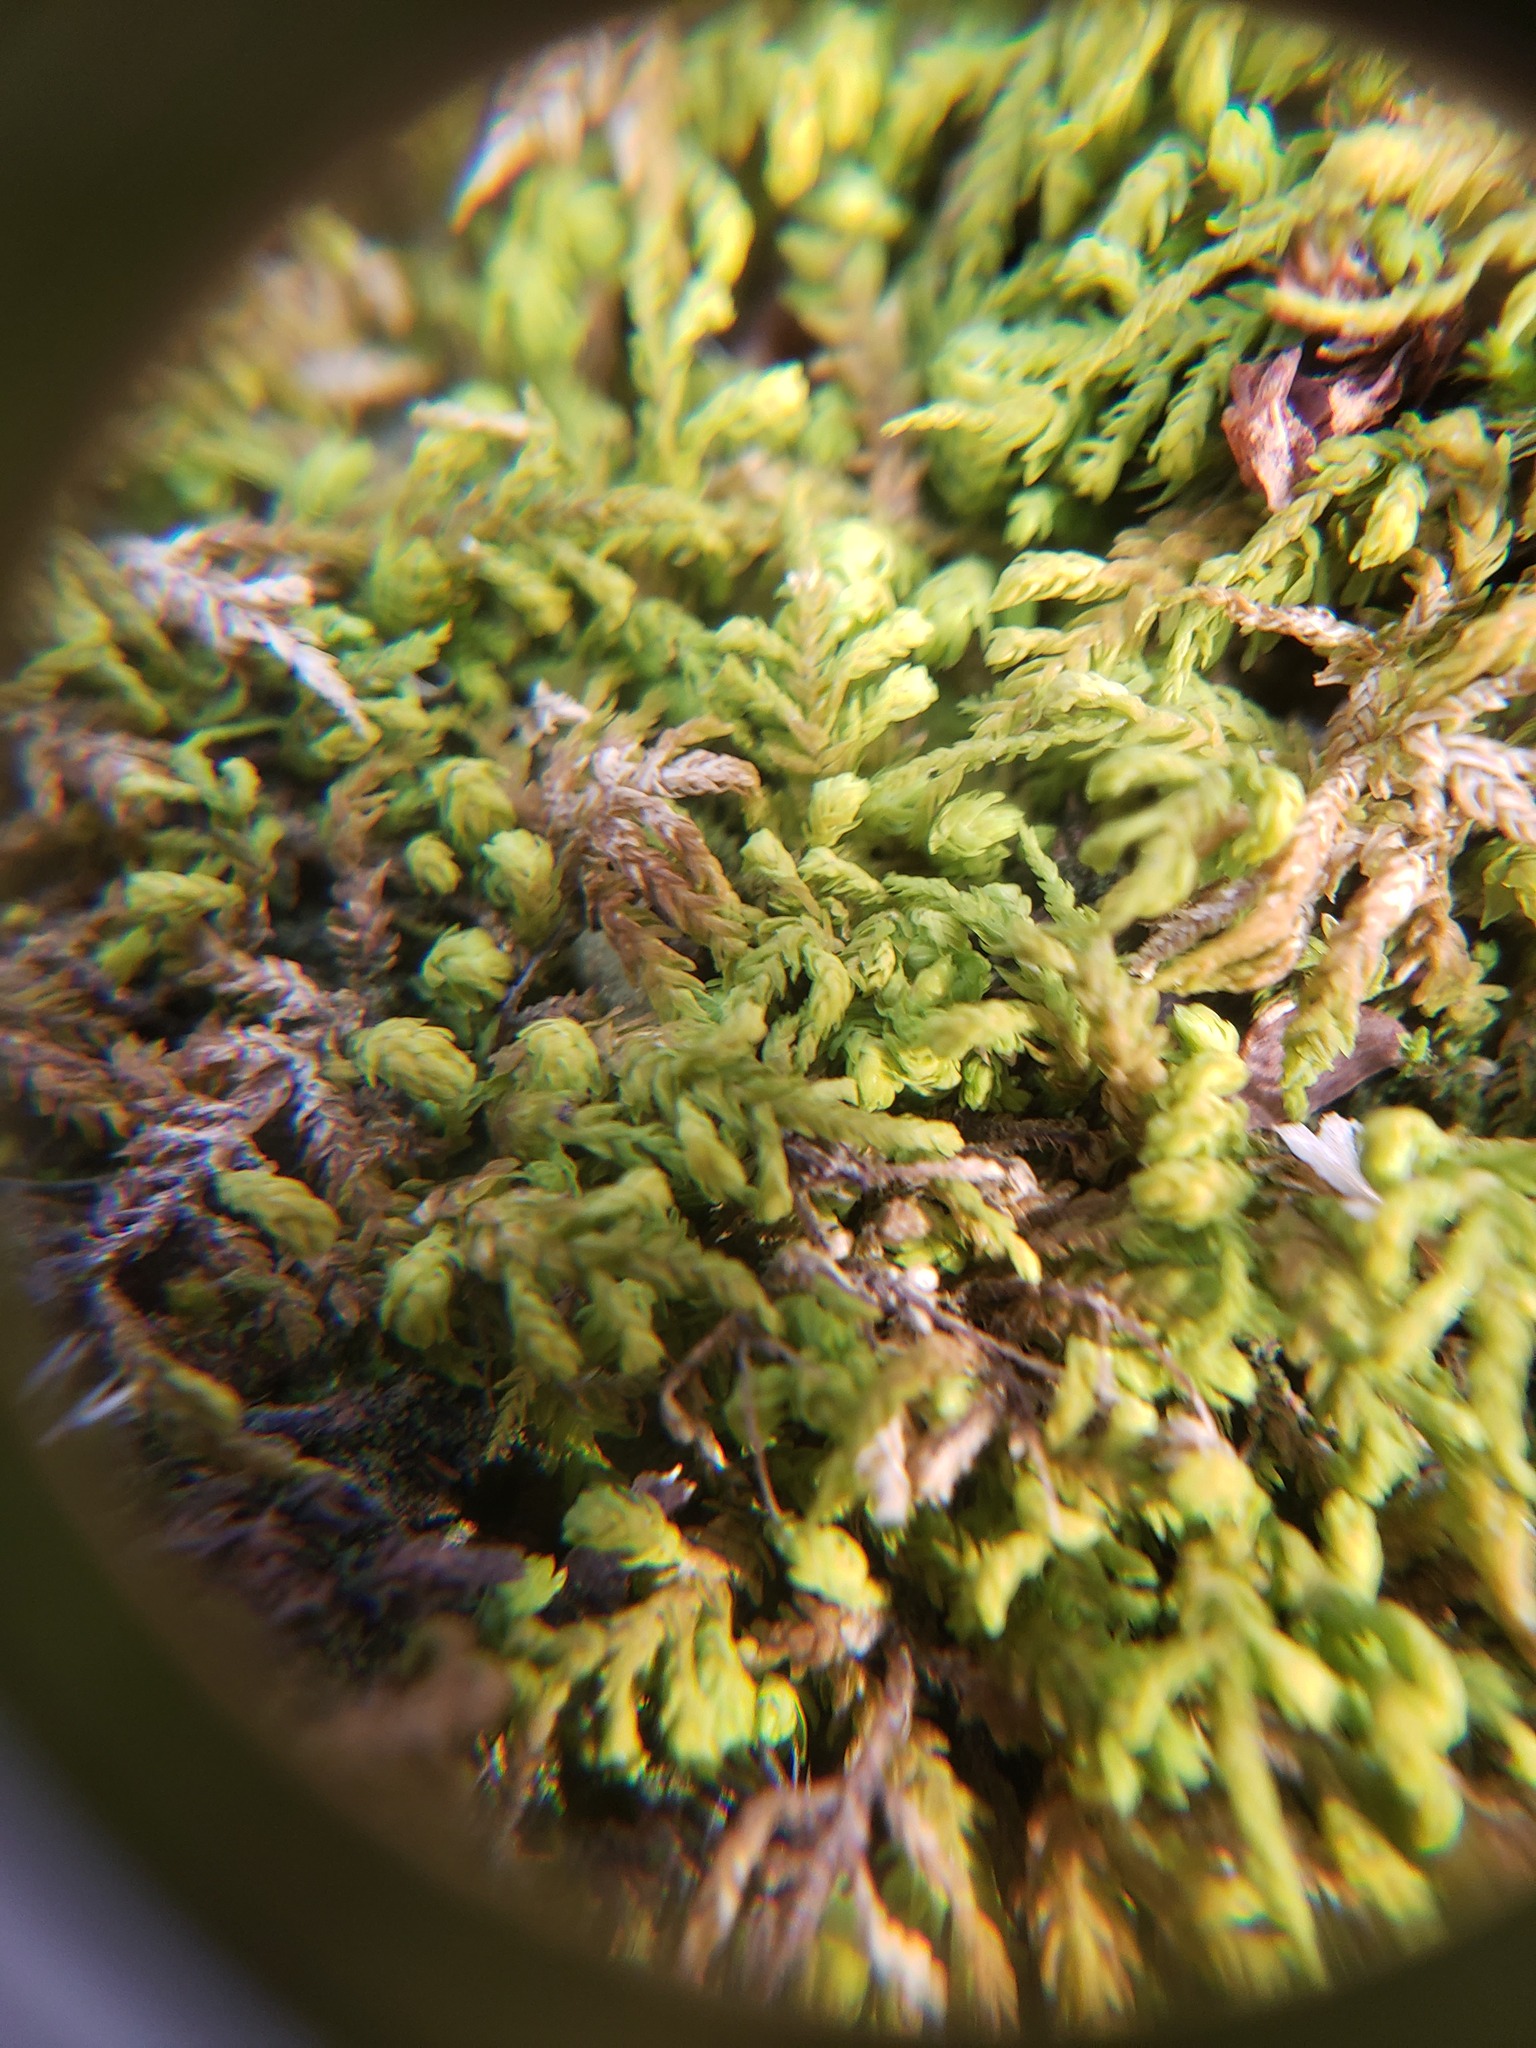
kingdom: Plantae
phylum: Bryophyta
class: Bryopsida
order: Hypnales
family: Neckeraceae
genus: Pseudanomodon
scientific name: Pseudanomodon attenuatus
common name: Tree-skirt moss
